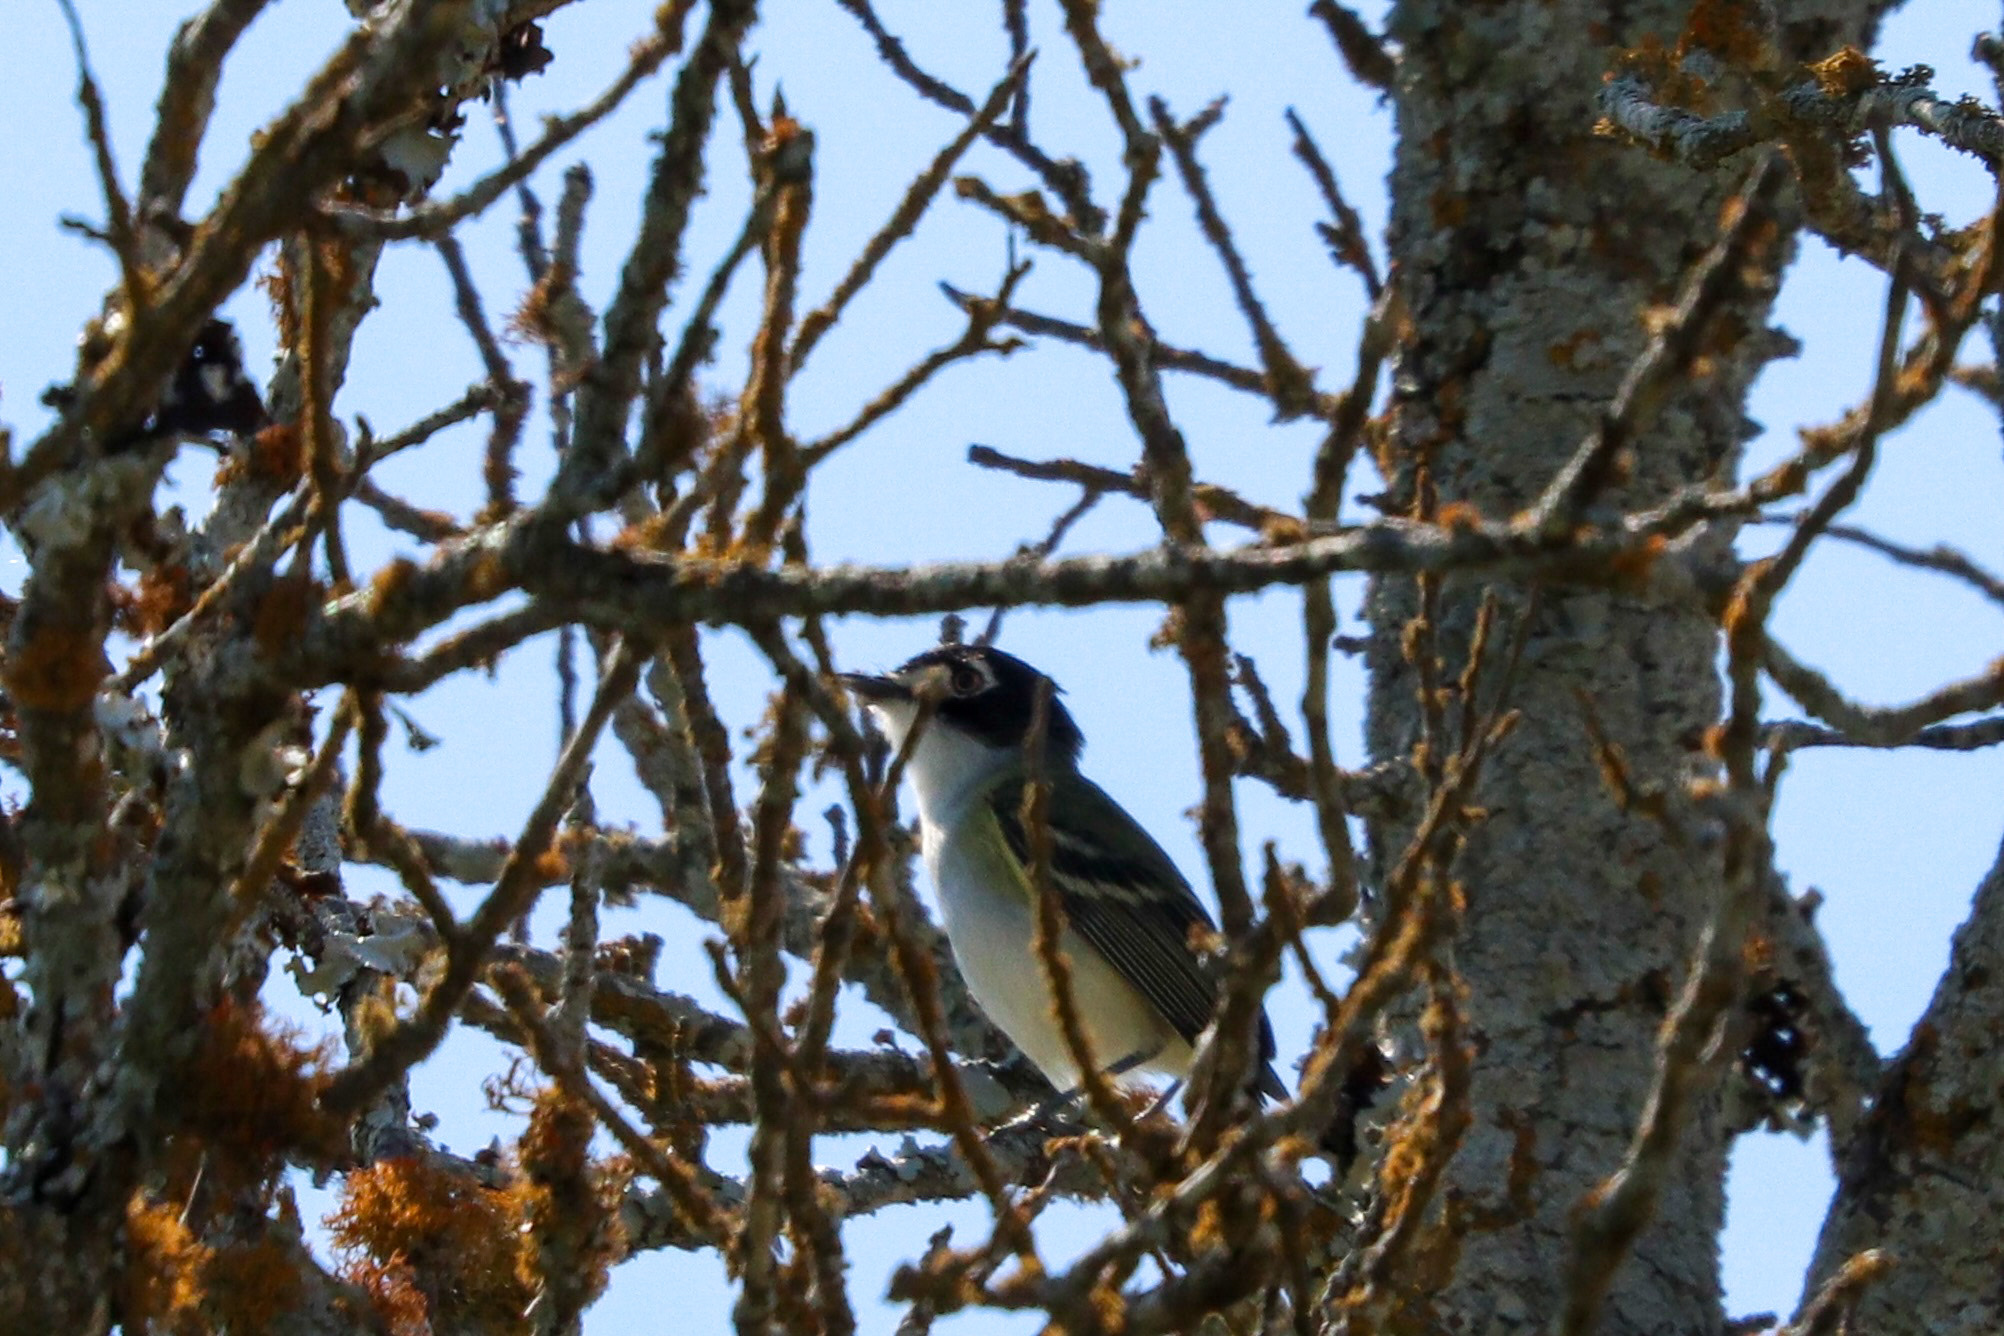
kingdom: Animalia
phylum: Chordata
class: Aves
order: Passeriformes
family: Vireonidae
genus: Vireo
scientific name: Vireo atricapilla
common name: Black-capped vireo
